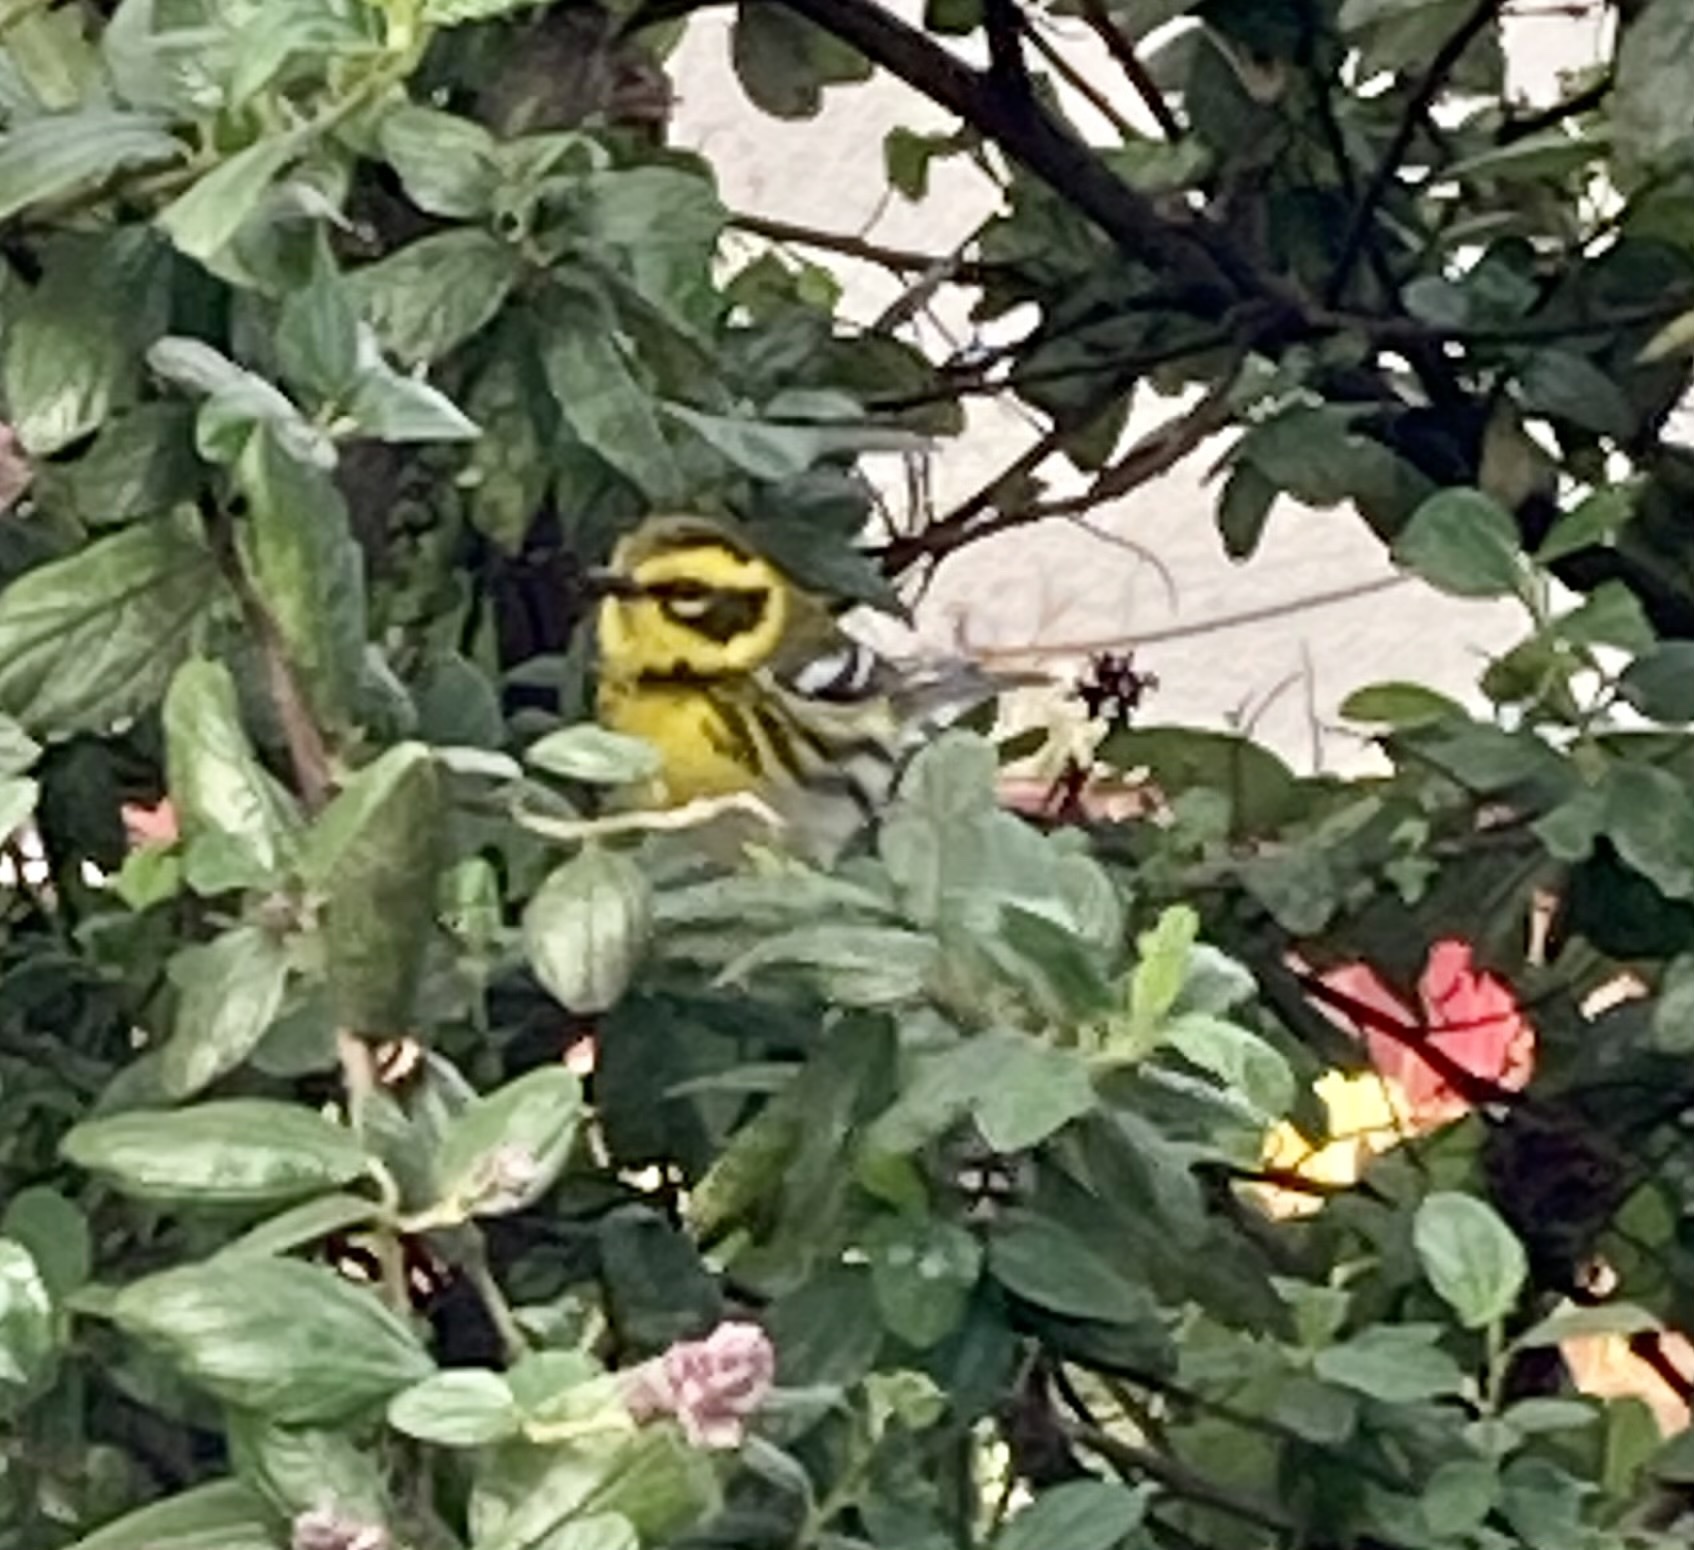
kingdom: Animalia
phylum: Chordata
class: Aves
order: Passeriformes
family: Parulidae
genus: Setophaga
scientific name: Setophaga townsendi
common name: Townsend's warbler
